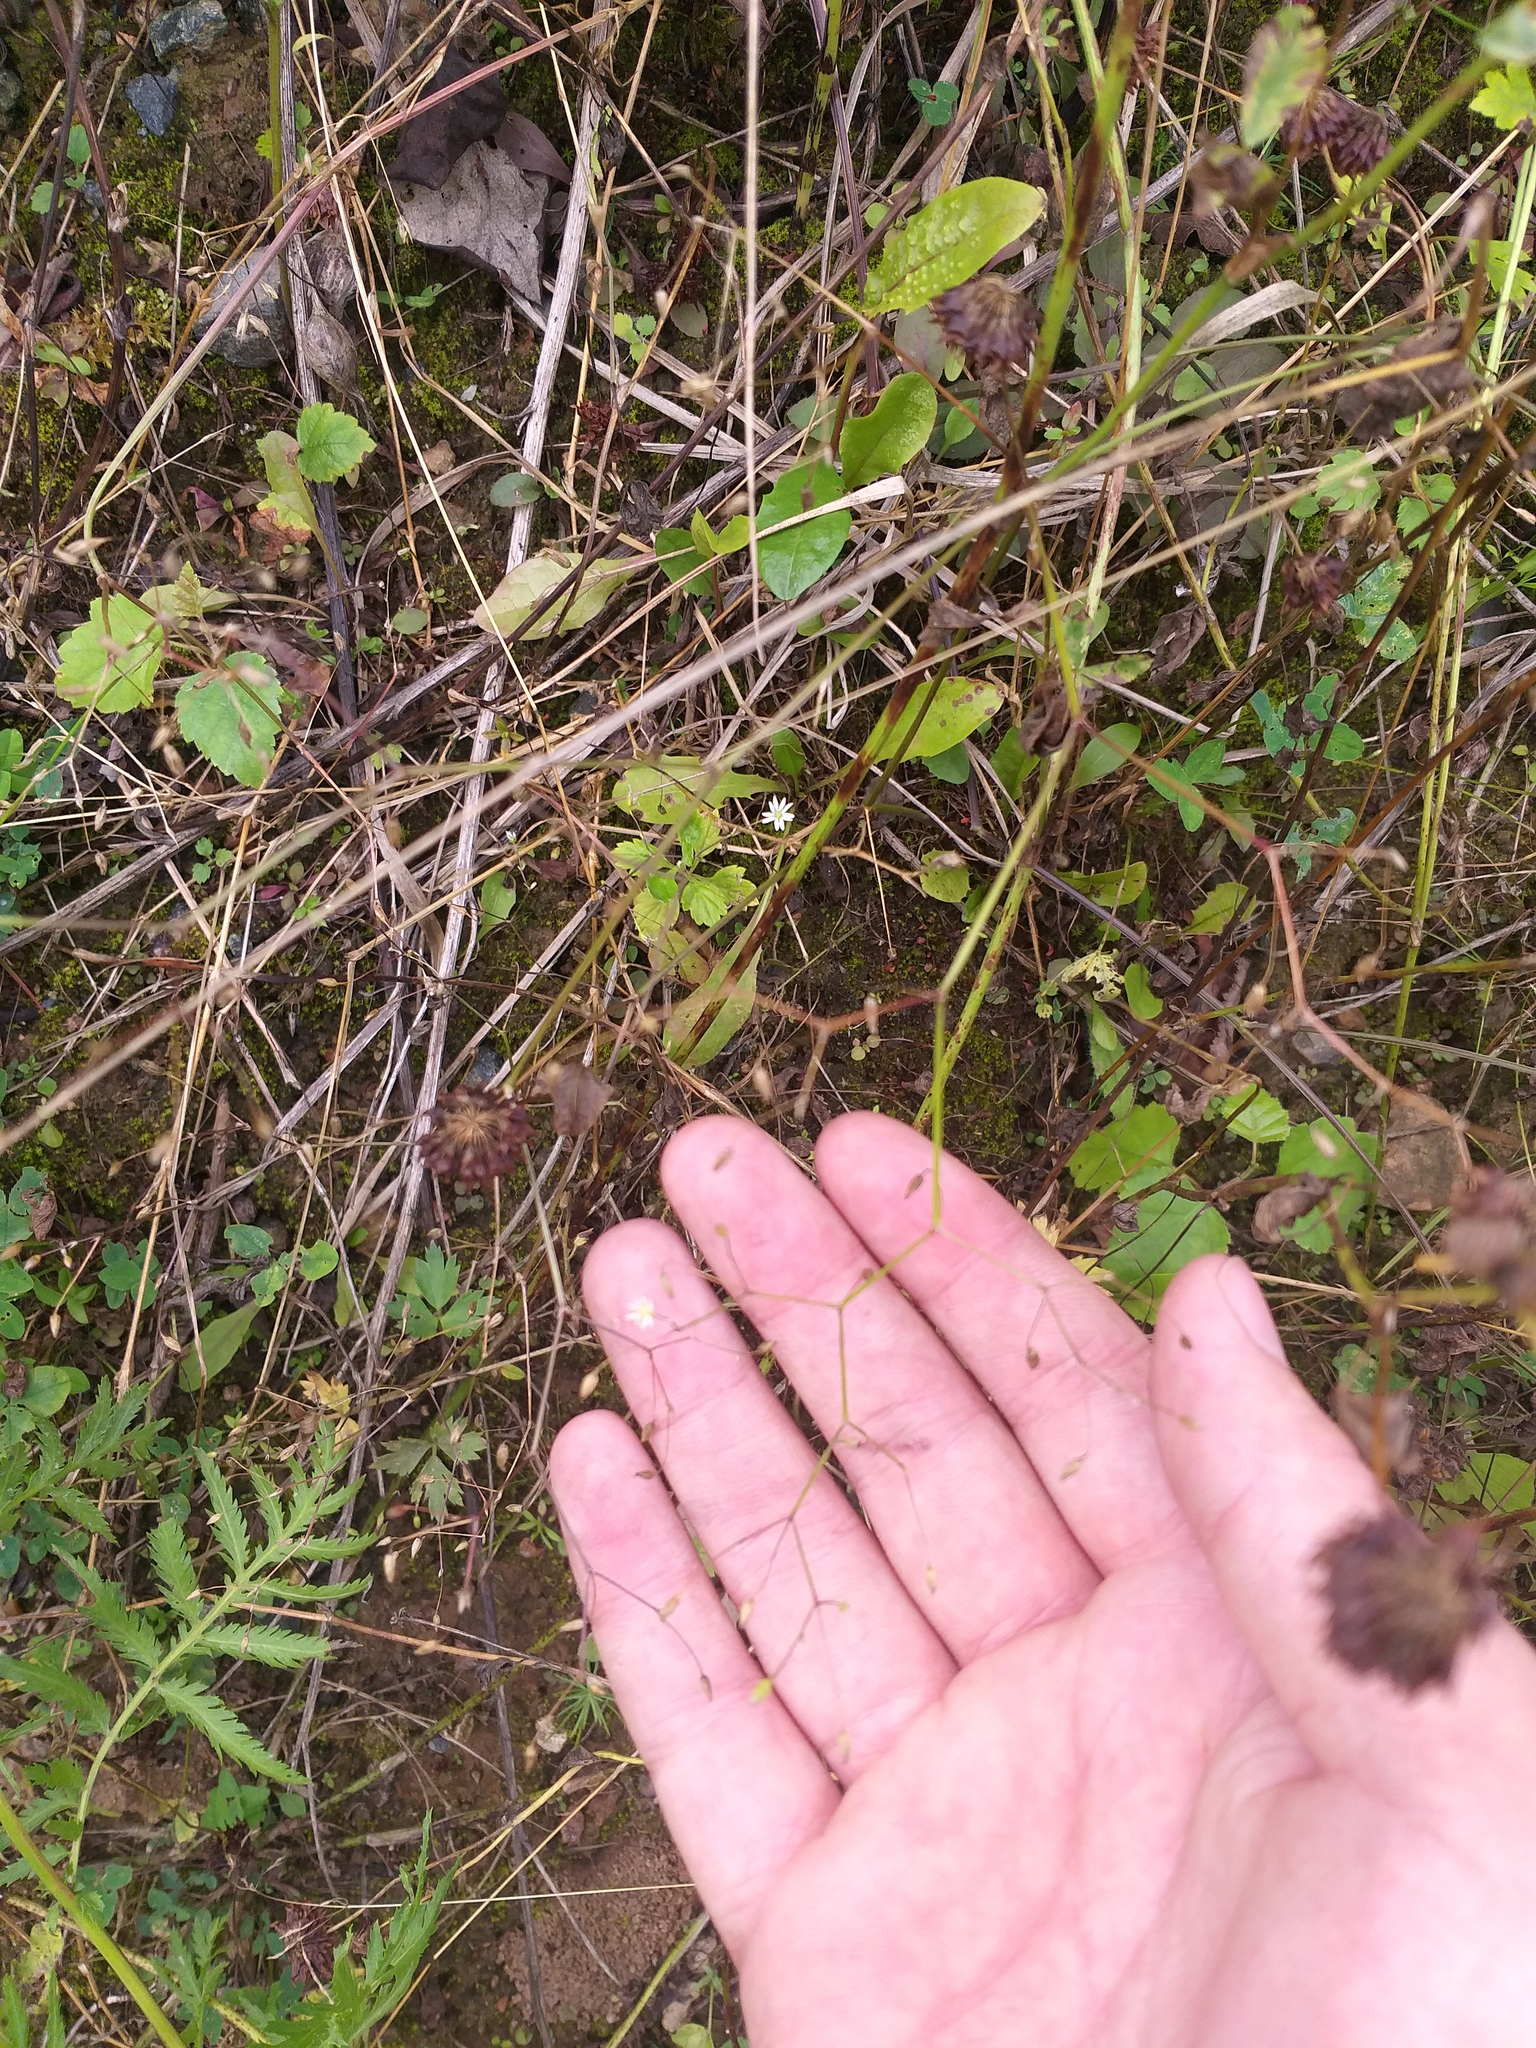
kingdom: Plantae
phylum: Tracheophyta
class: Magnoliopsida
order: Caryophyllales
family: Caryophyllaceae
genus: Stellaria
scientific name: Stellaria graminea
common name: Grass-like starwort
